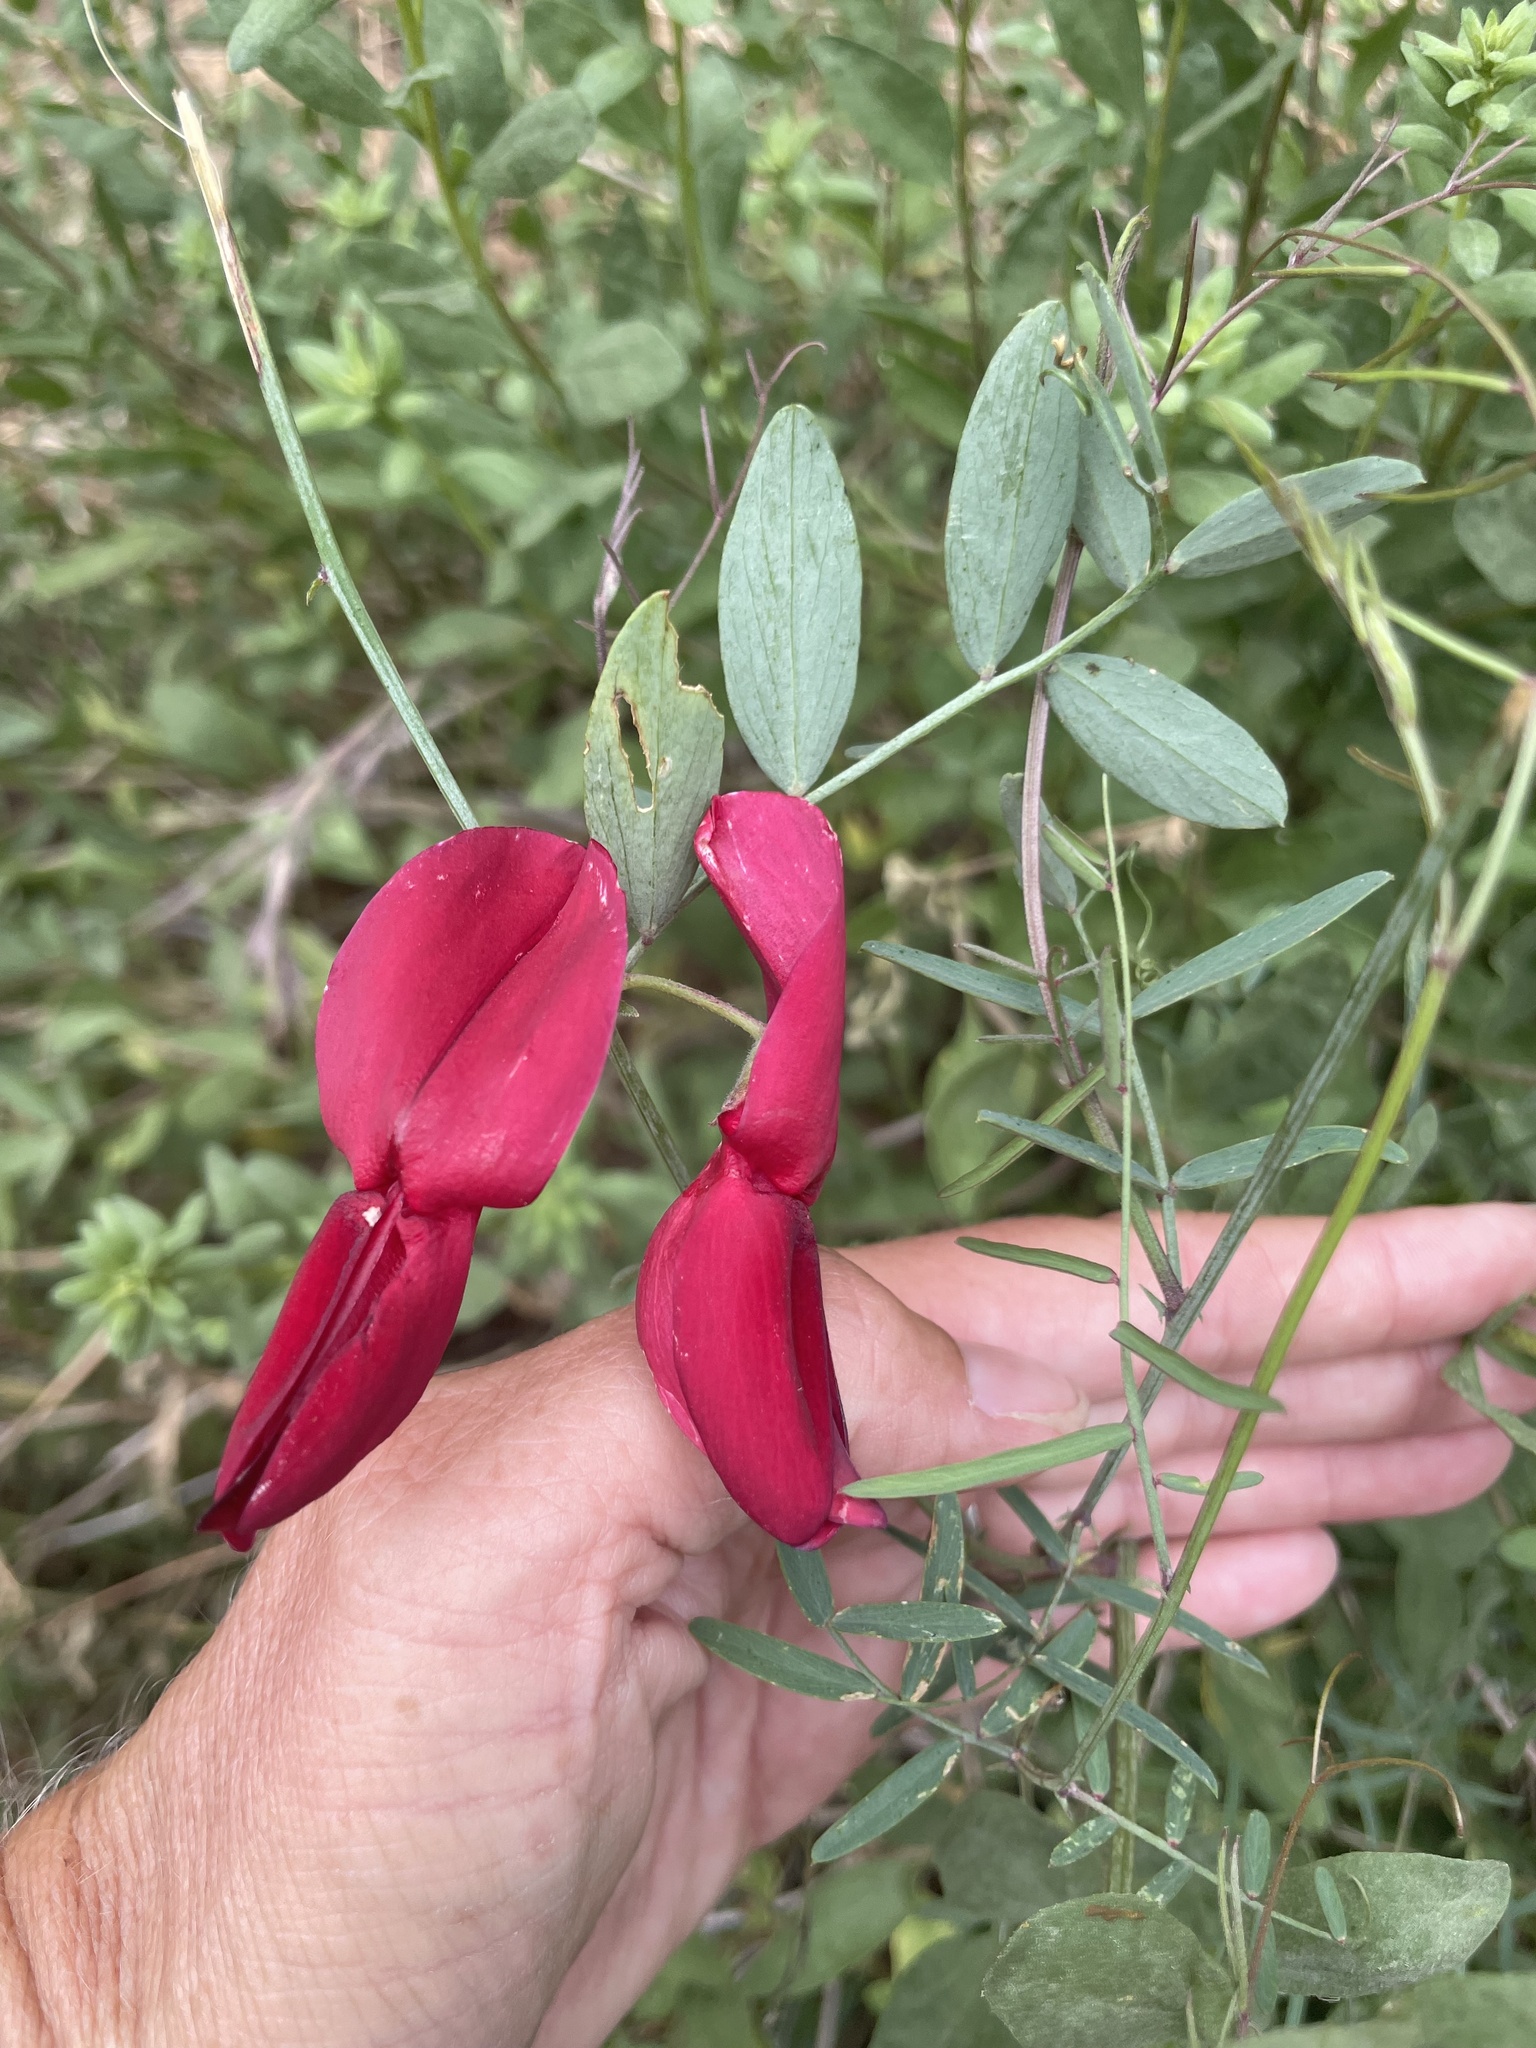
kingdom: Plantae
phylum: Tracheophyta
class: Magnoliopsida
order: Fabales
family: Fabaceae
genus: Lathyrus
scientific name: Lathyrus splendens
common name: Campo-pea
